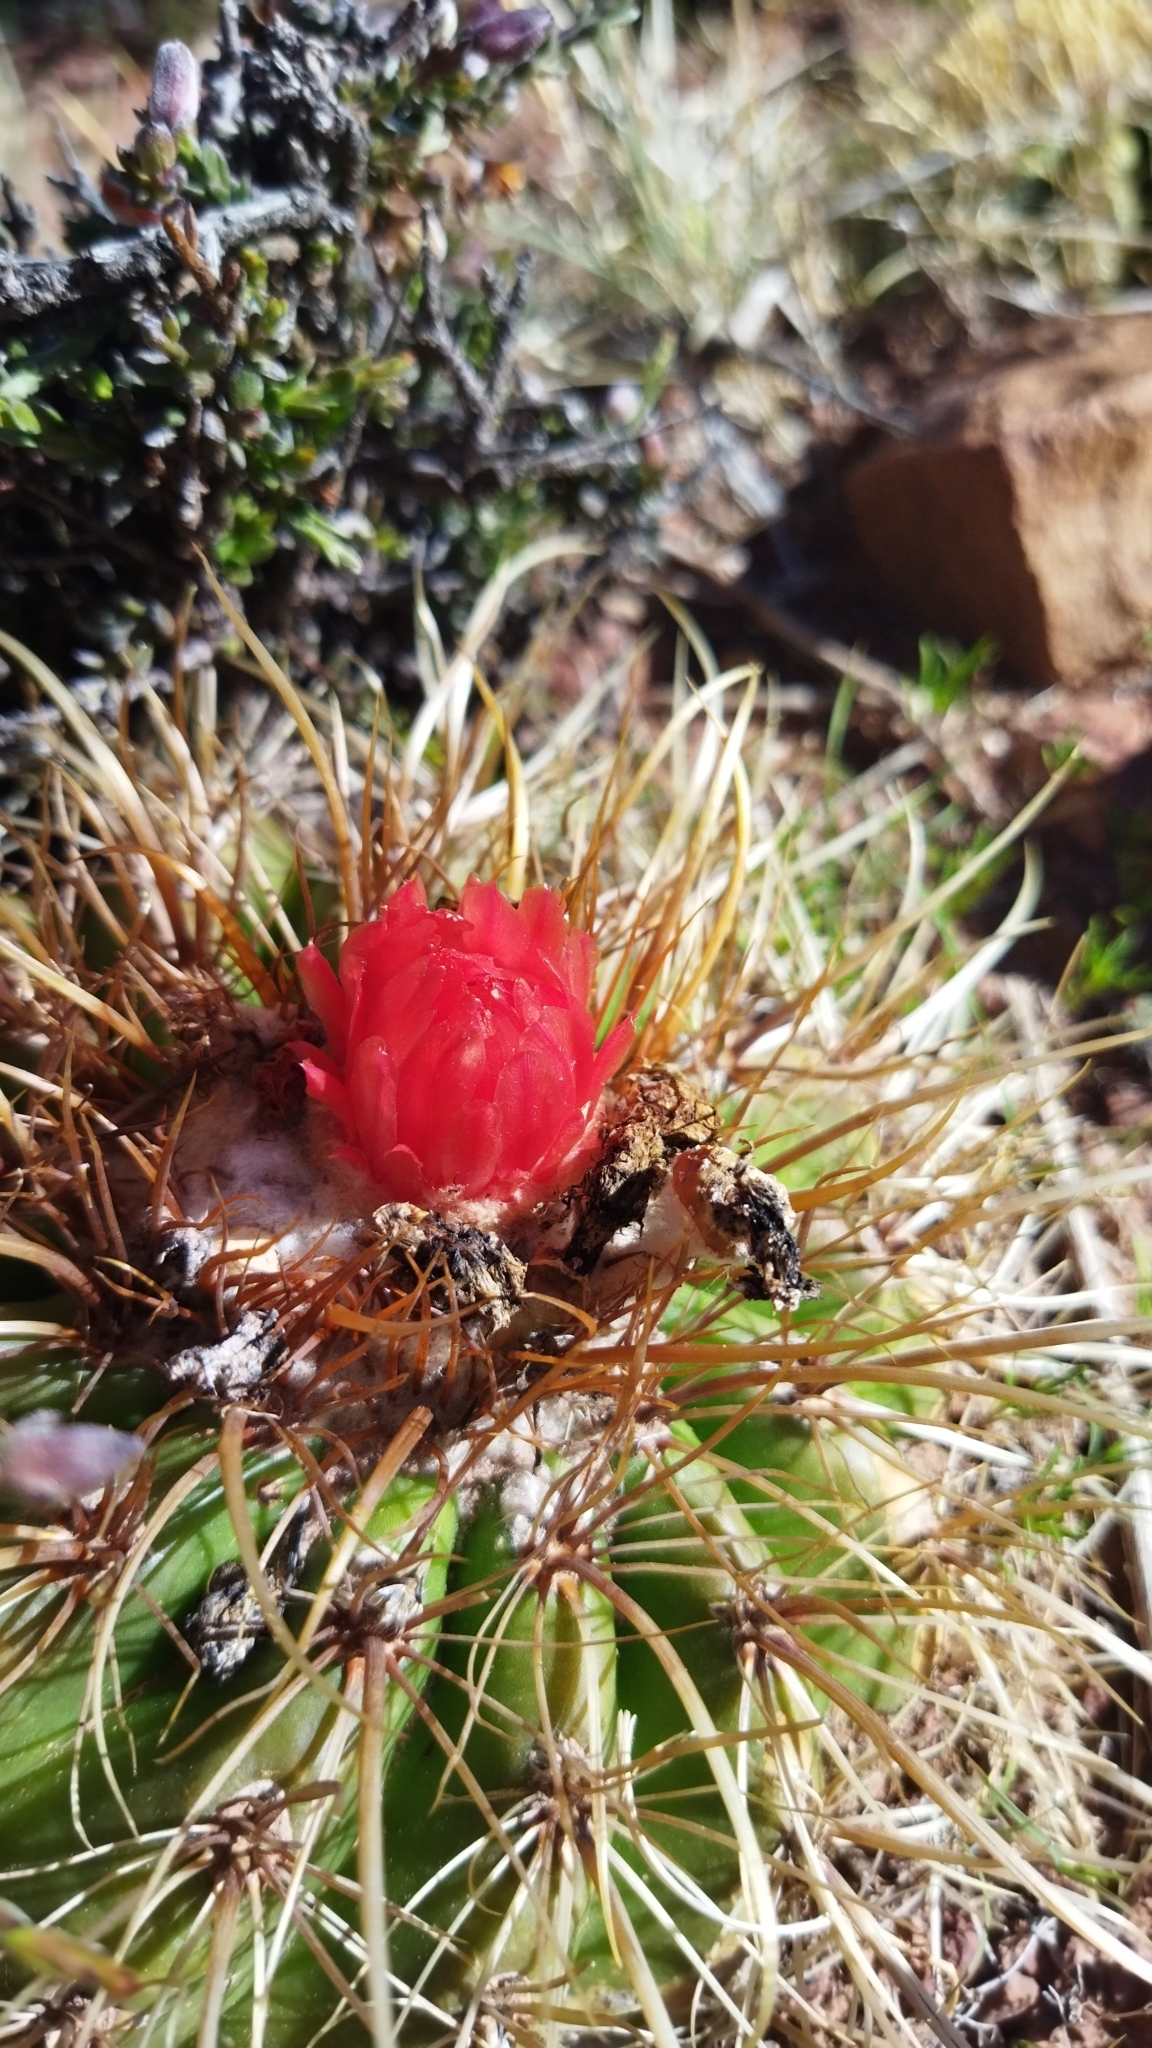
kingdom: Plantae
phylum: Tracheophyta
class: Magnoliopsida
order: Caryophyllales
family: Cactaceae
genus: Parodia
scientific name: Parodia maassii
